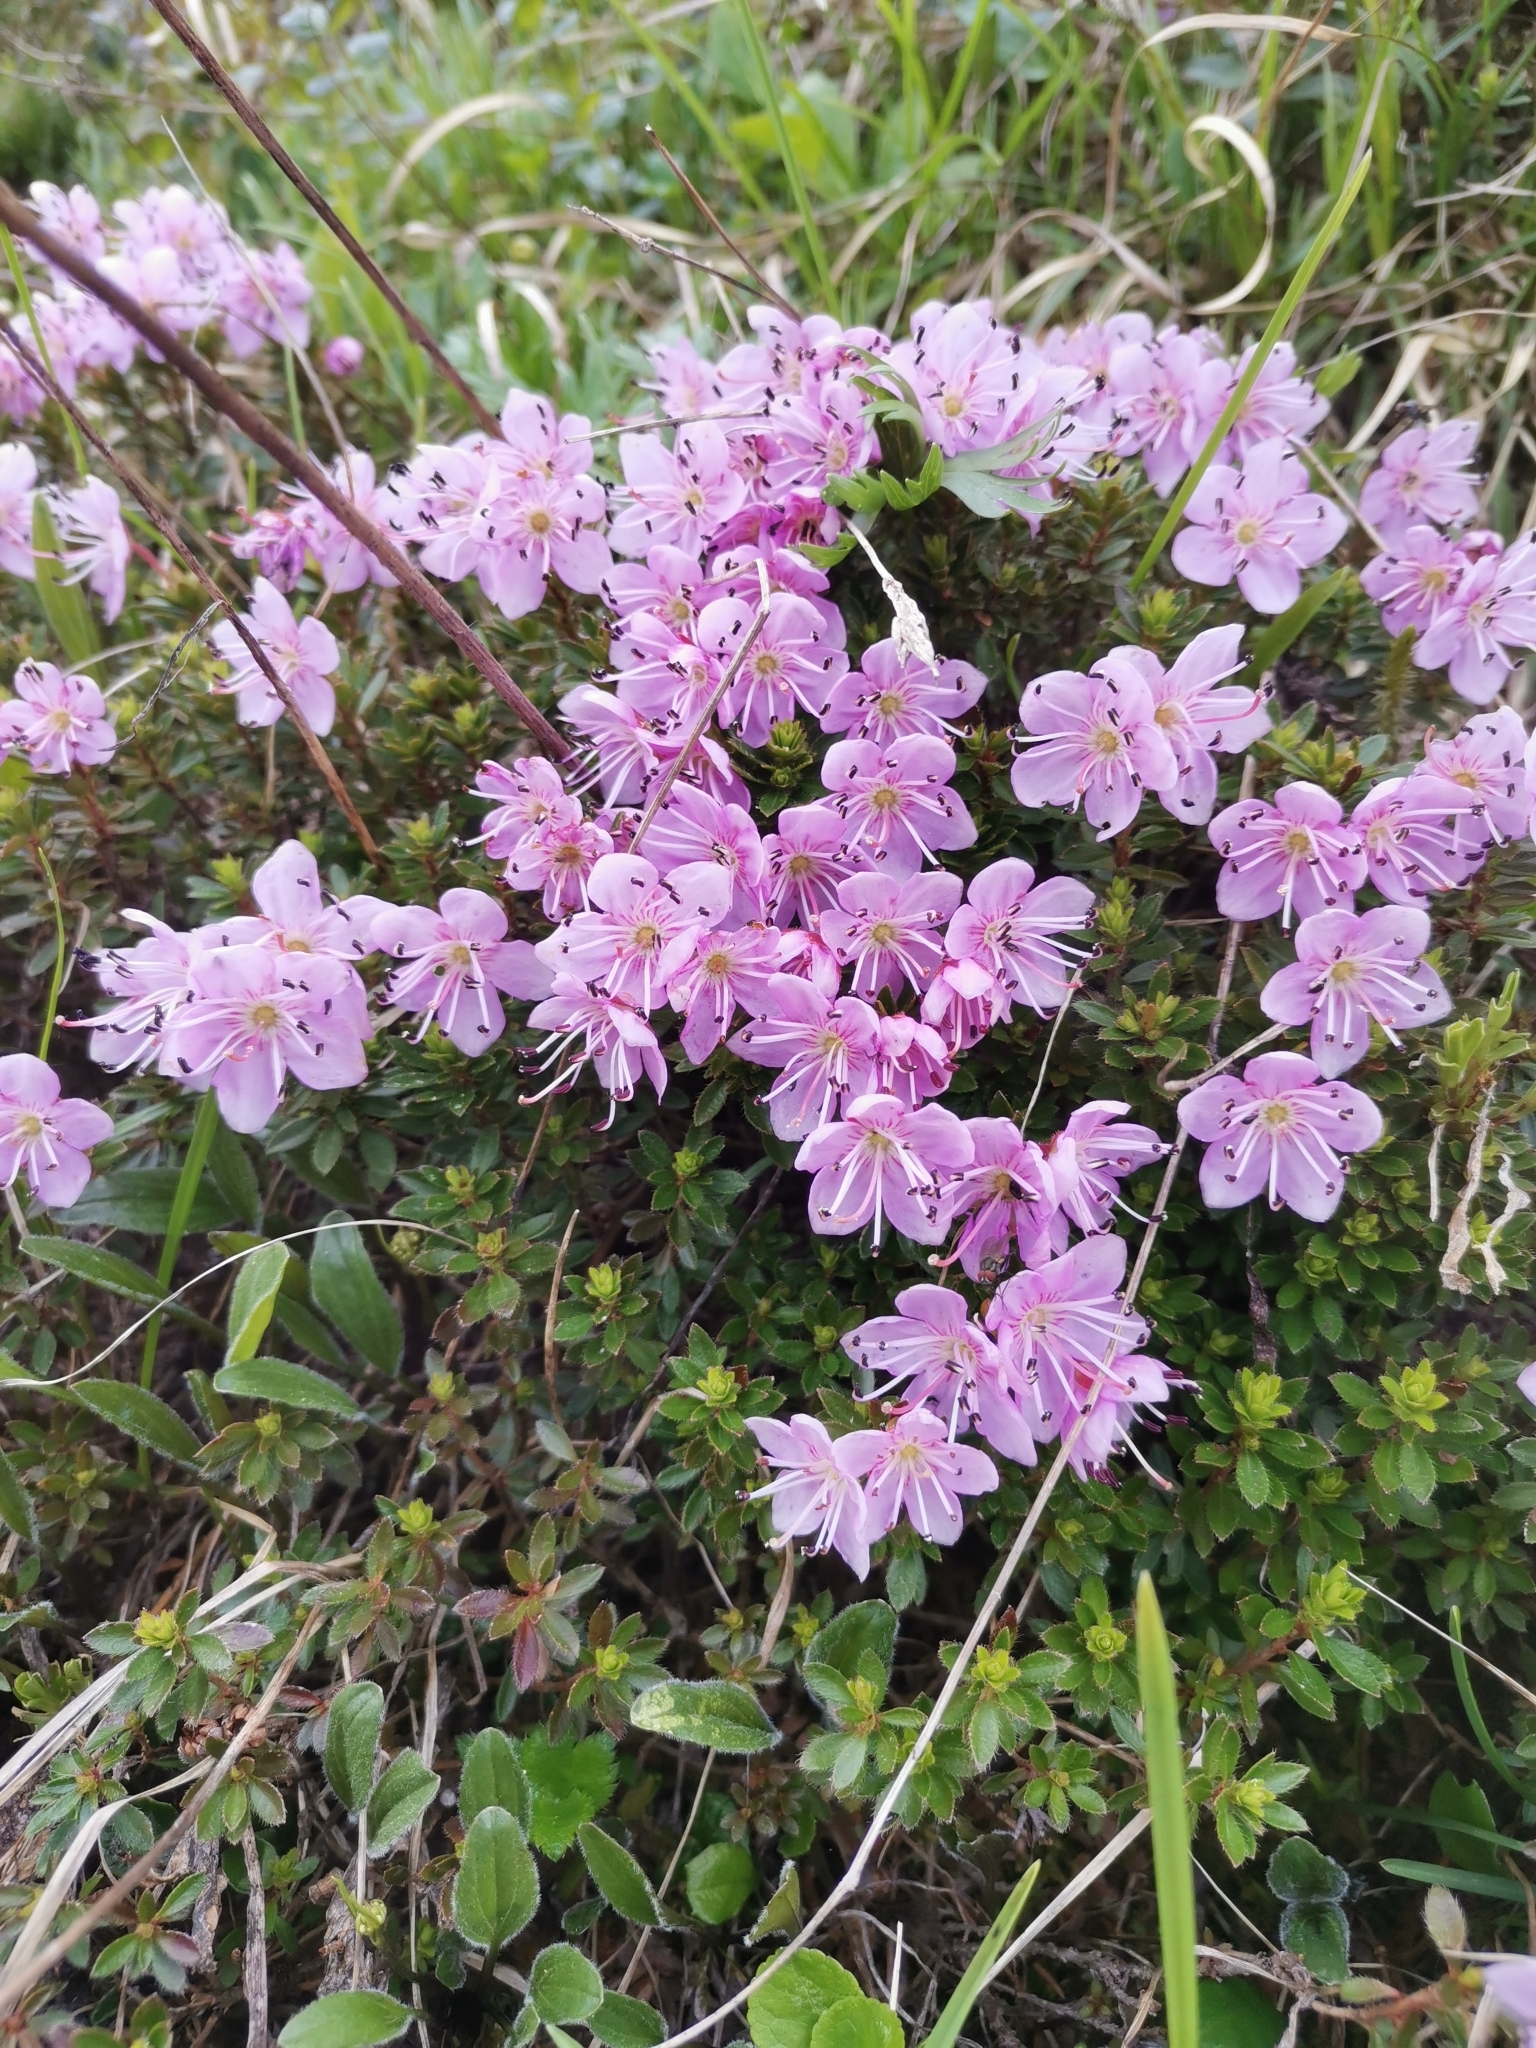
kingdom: Plantae
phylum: Tracheophyta
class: Magnoliopsida
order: Ericales
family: Ericaceae
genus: Rhodothamnus
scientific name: Rhodothamnus chamaecistus
